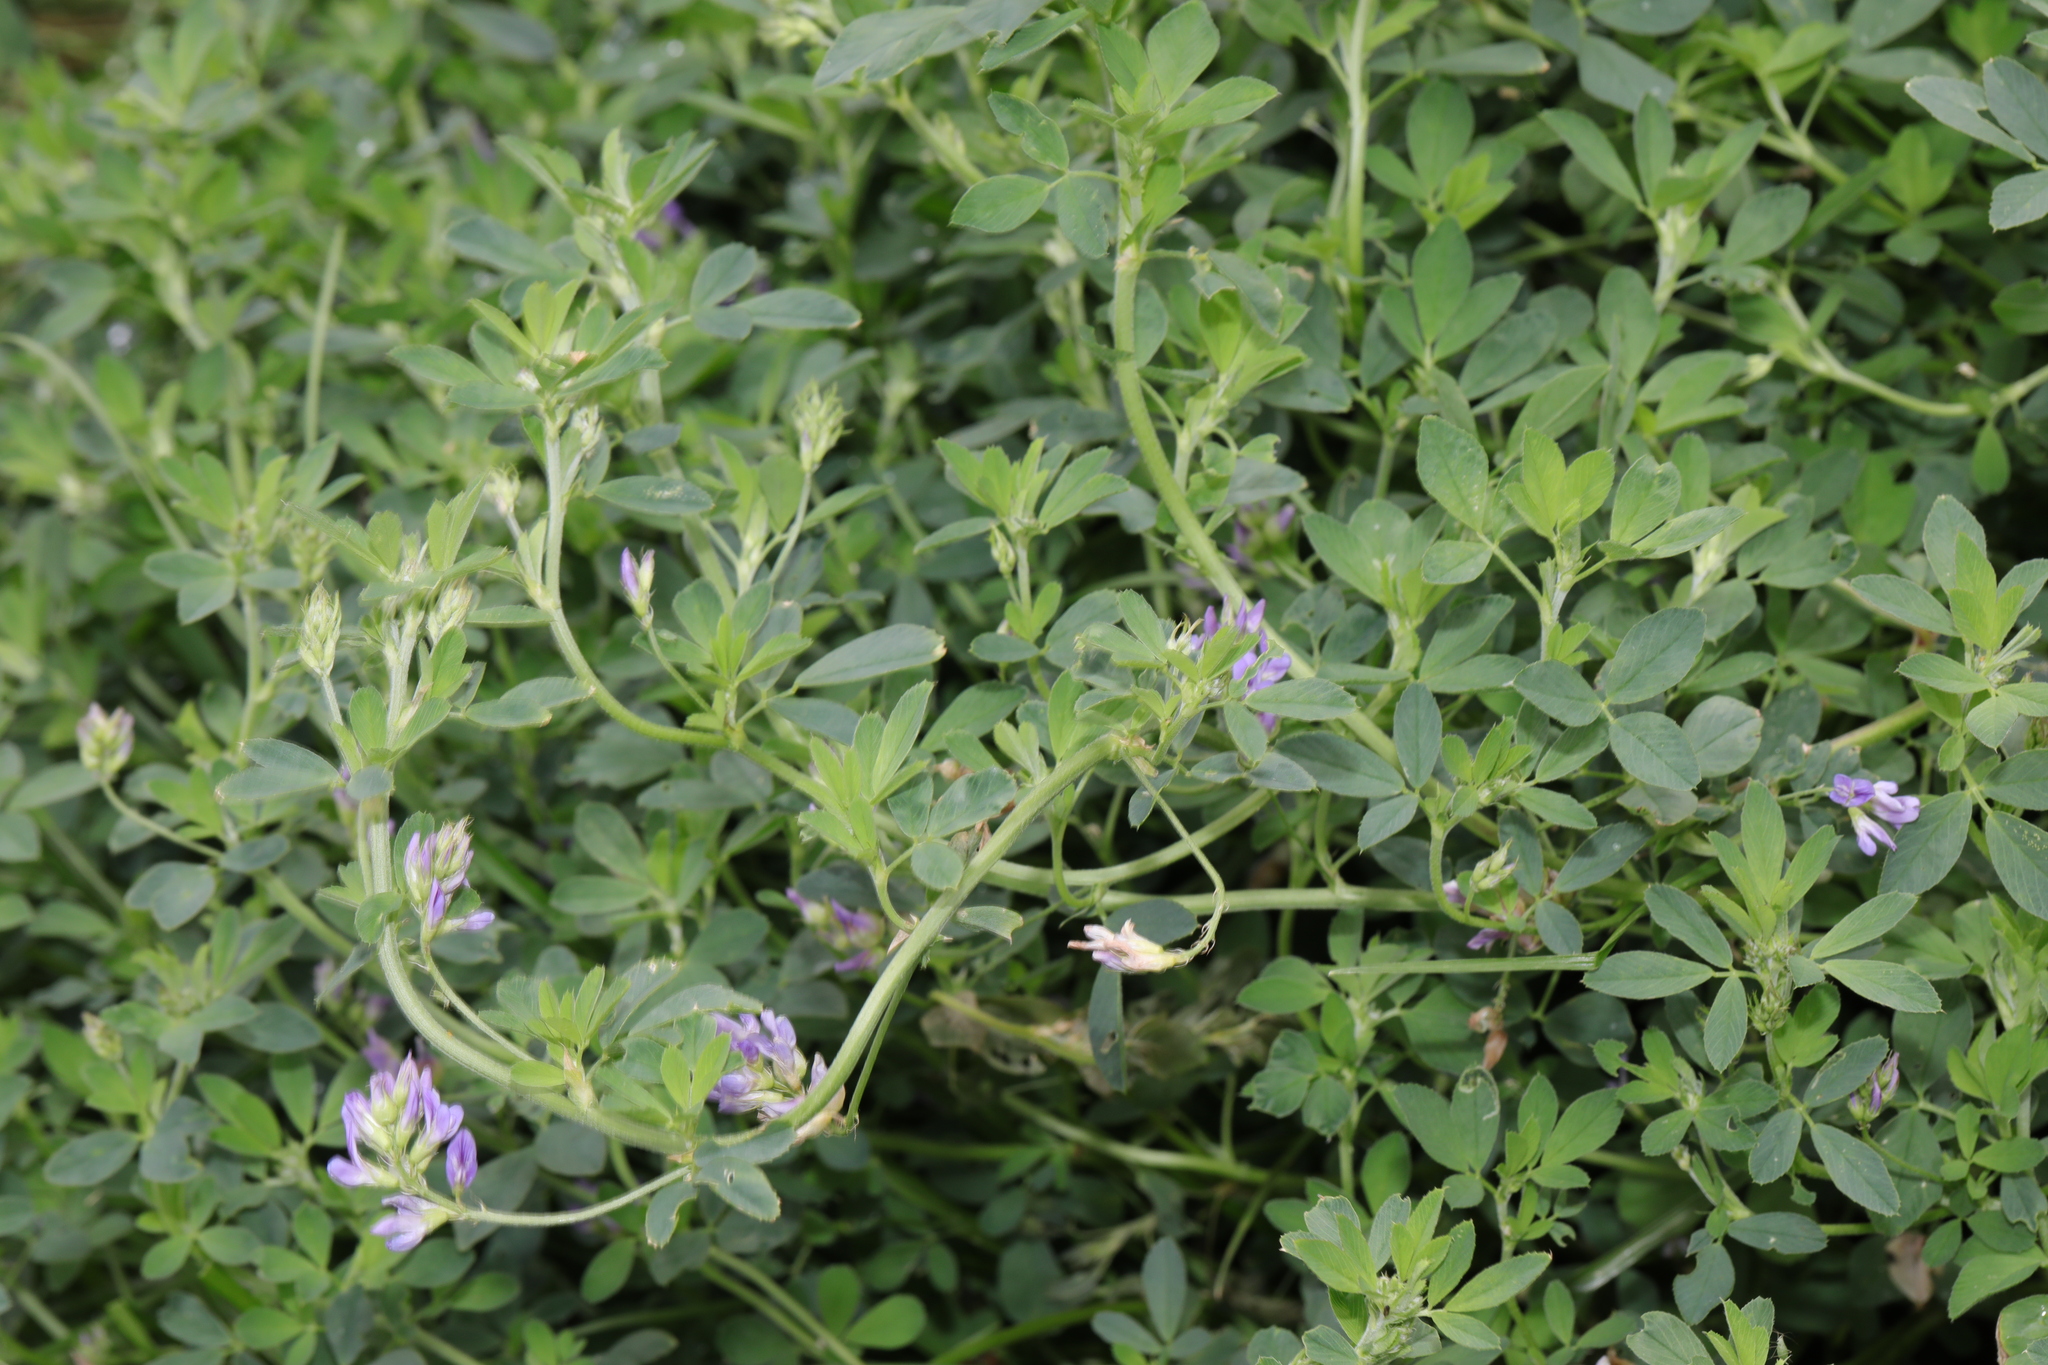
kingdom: Plantae
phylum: Tracheophyta
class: Magnoliopsida
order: Fabales
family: Fabaceae
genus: Medicago
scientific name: Medicago sativa
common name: Alfalfa
